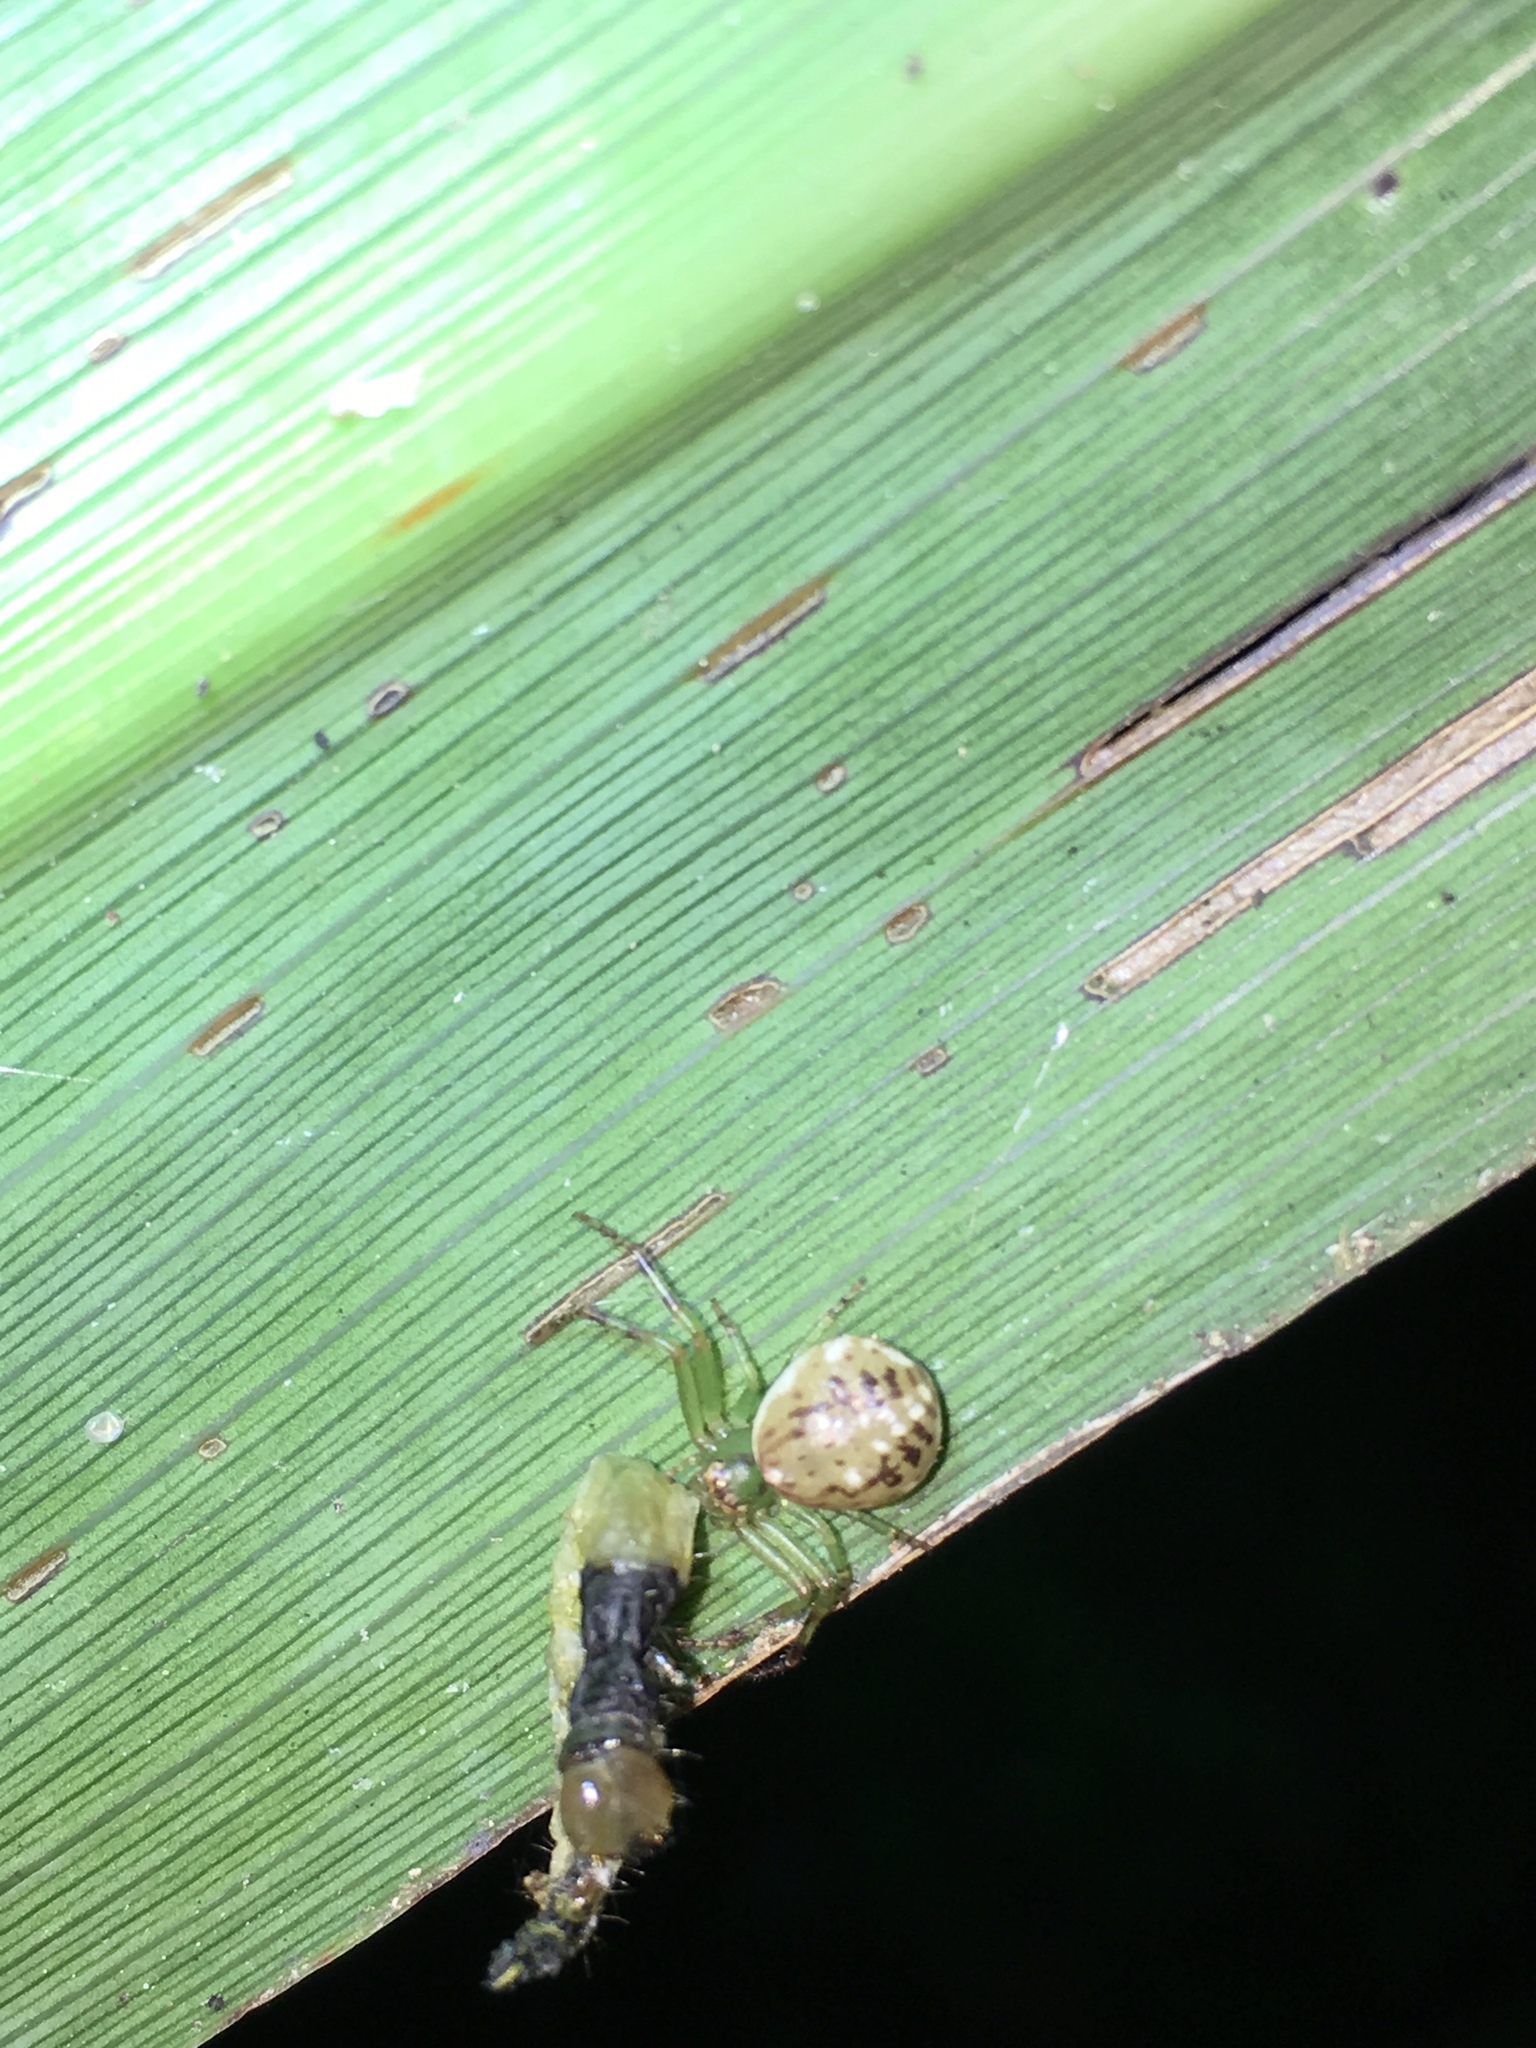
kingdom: Animalia
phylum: Arthropoda
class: Arachnida
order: Araneae
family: Thomisidae
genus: Diaea
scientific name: Diaea ambara
